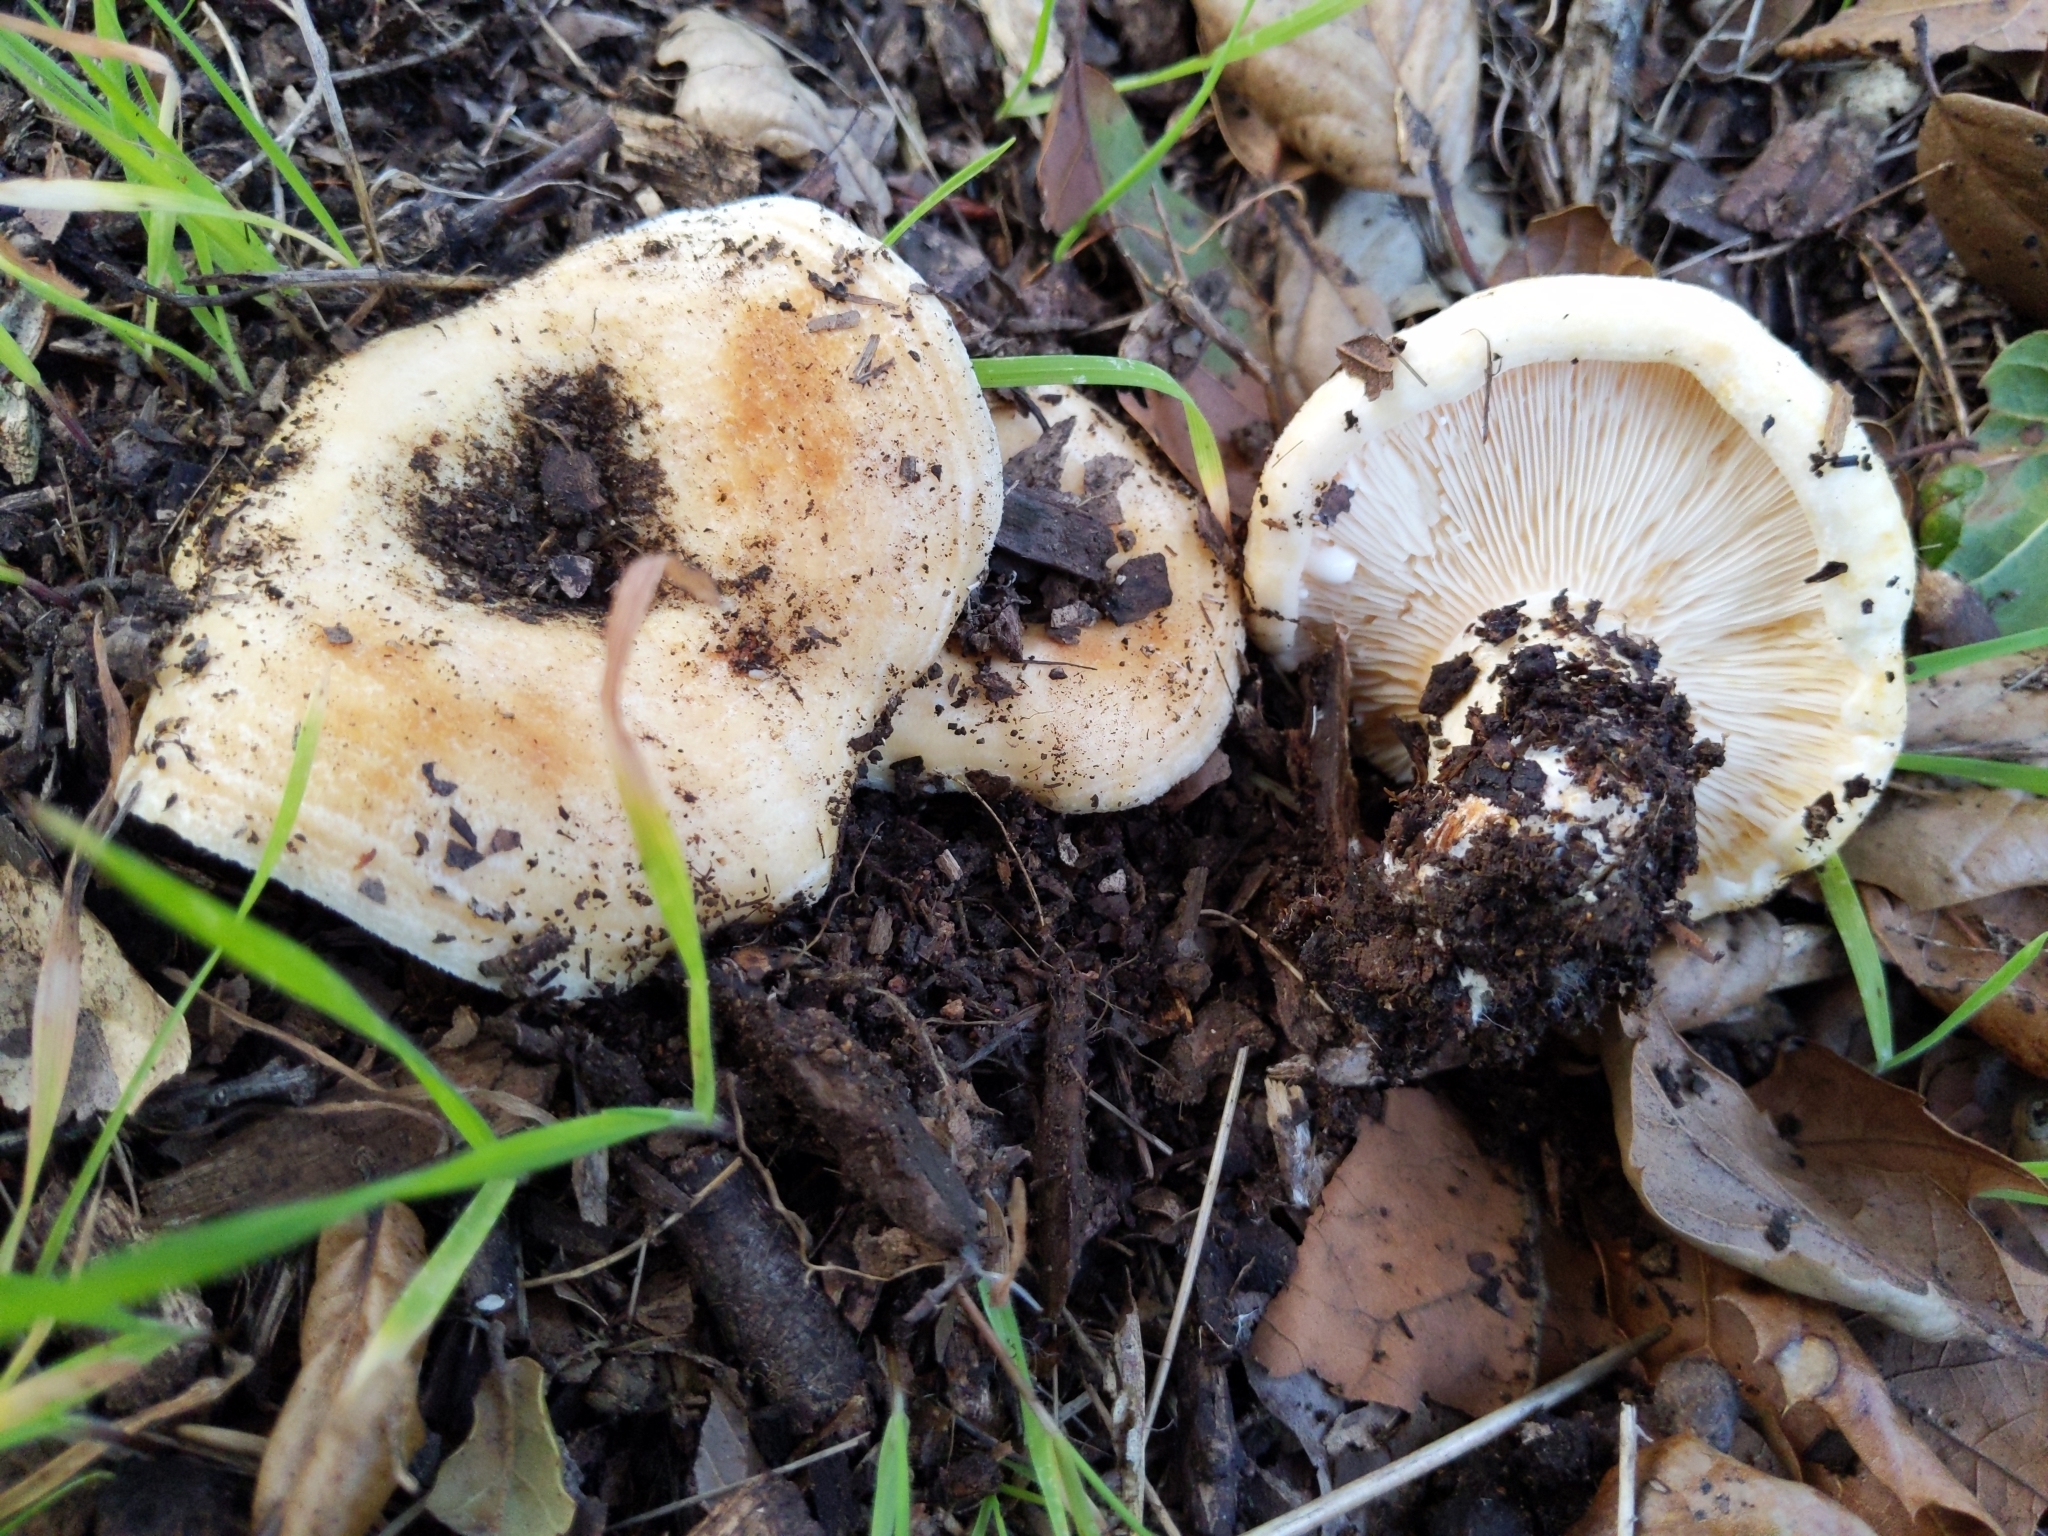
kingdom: Fungi
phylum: Basidiomycota
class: Agaricomycetes
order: Russulales
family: Russulaceae
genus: Lactarius
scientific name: Lactarius alnicola
